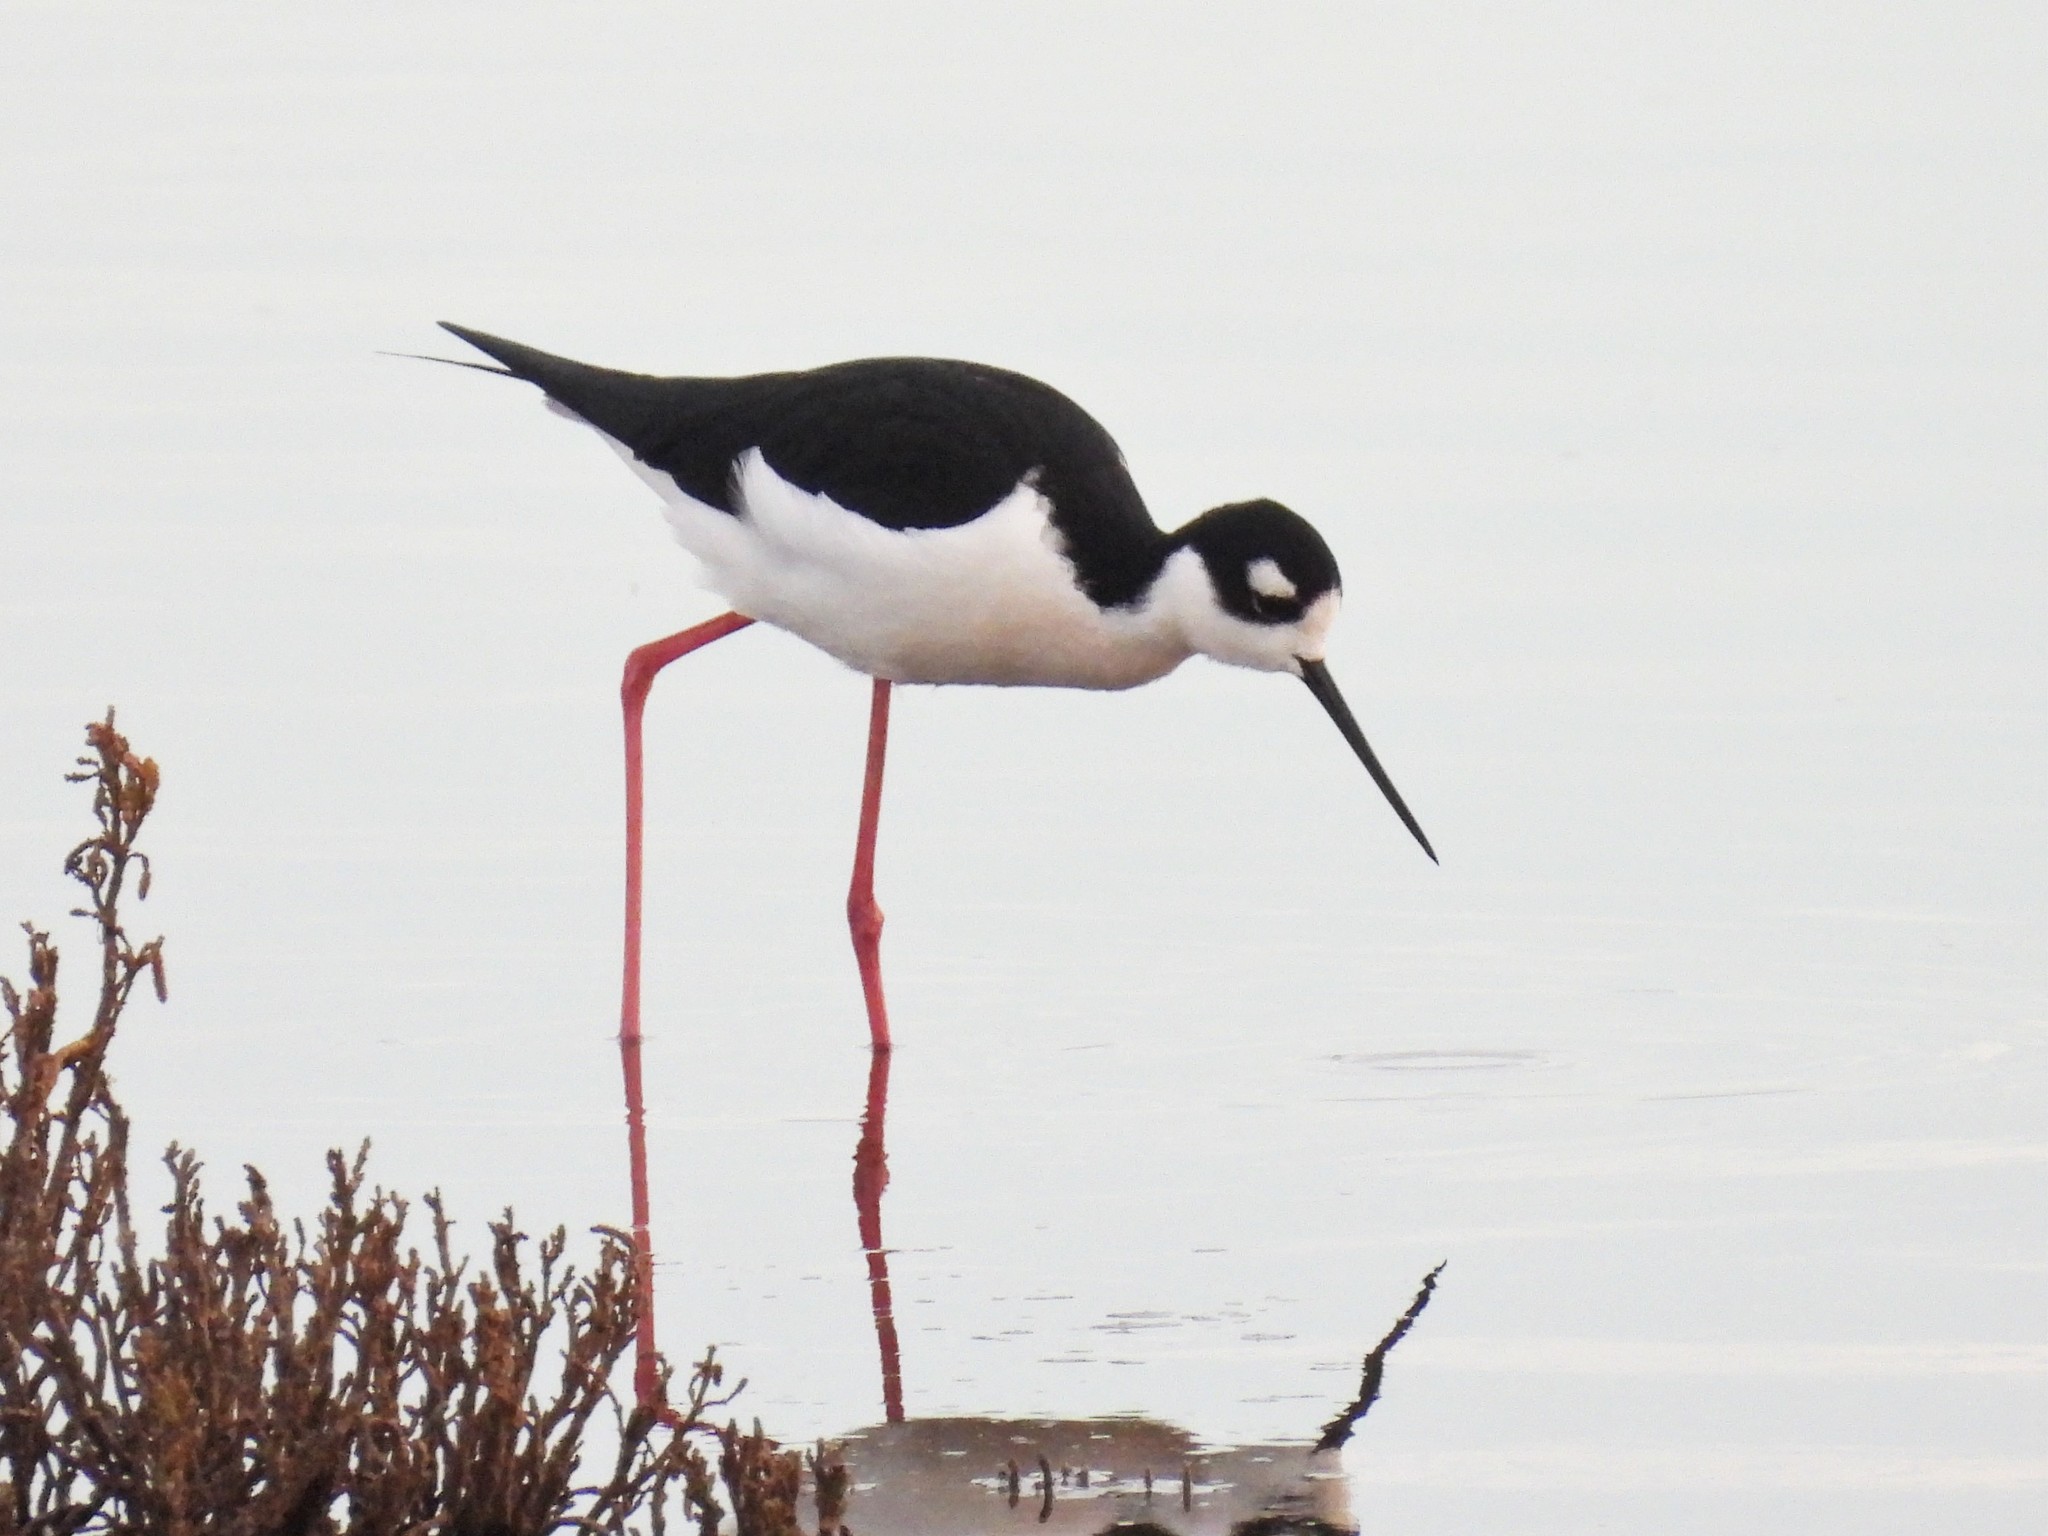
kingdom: Animalia
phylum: Chordata
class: Aves
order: Charadriiformes
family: Recurvirostridae
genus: Himantopus
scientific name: Himantopus mexicanus
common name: Black-necked stilt
